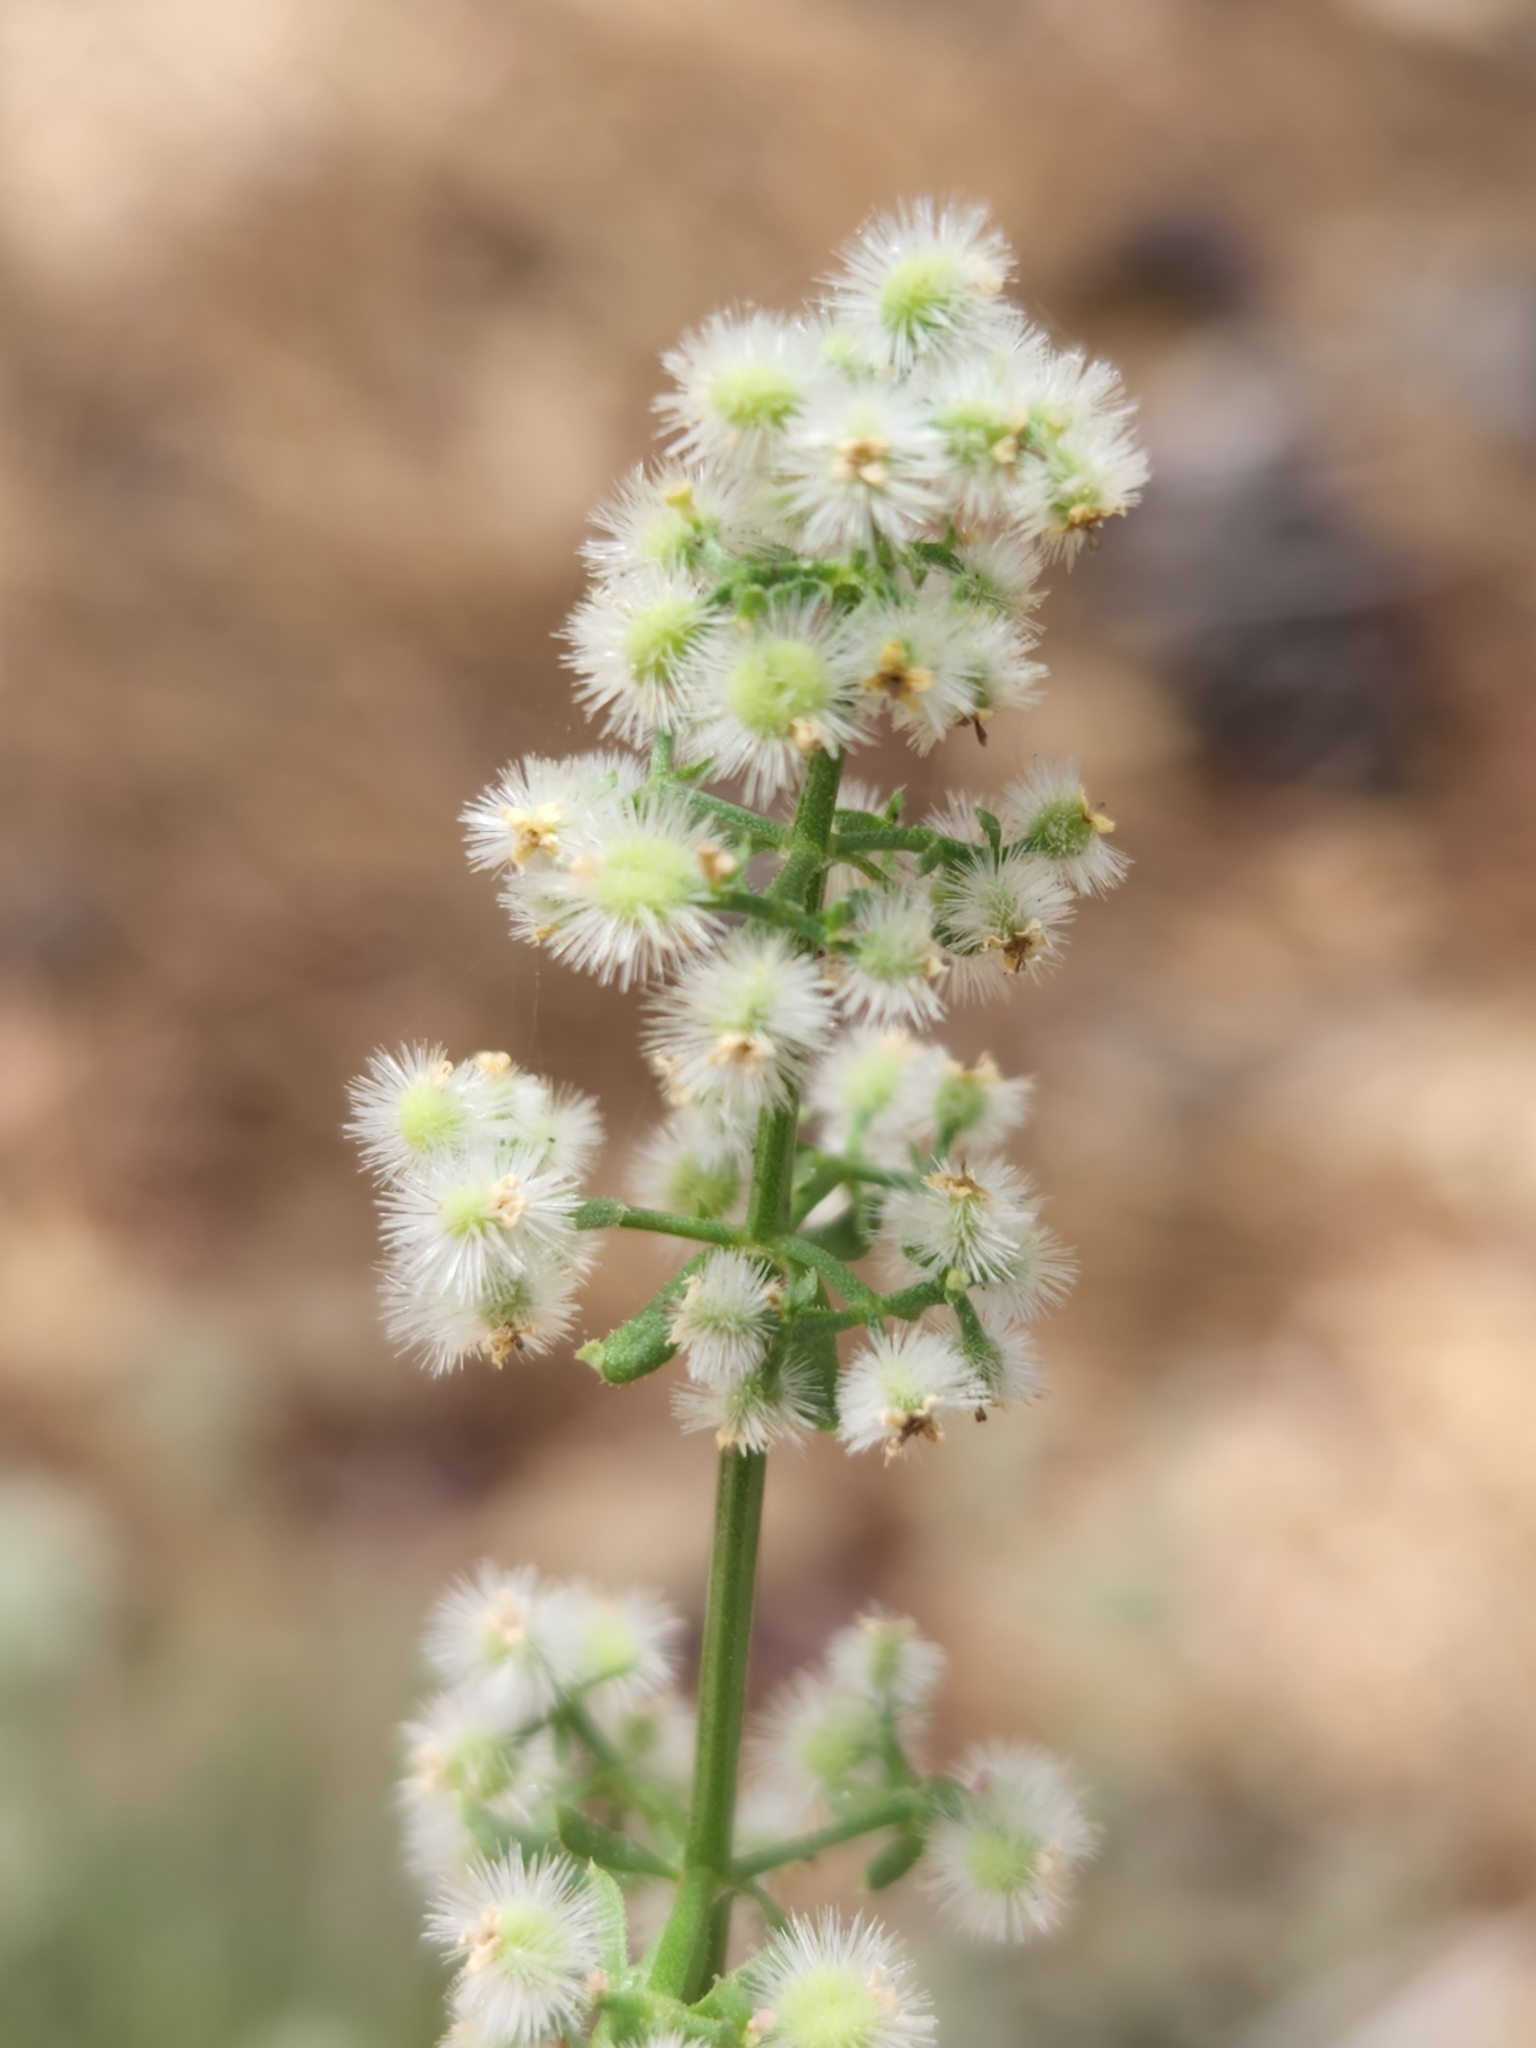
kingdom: Plantae
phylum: Tracheophyta
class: Magnoliopsida
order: Gentianales
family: Rubiaceae
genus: Galium
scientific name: Galium angustifolium
